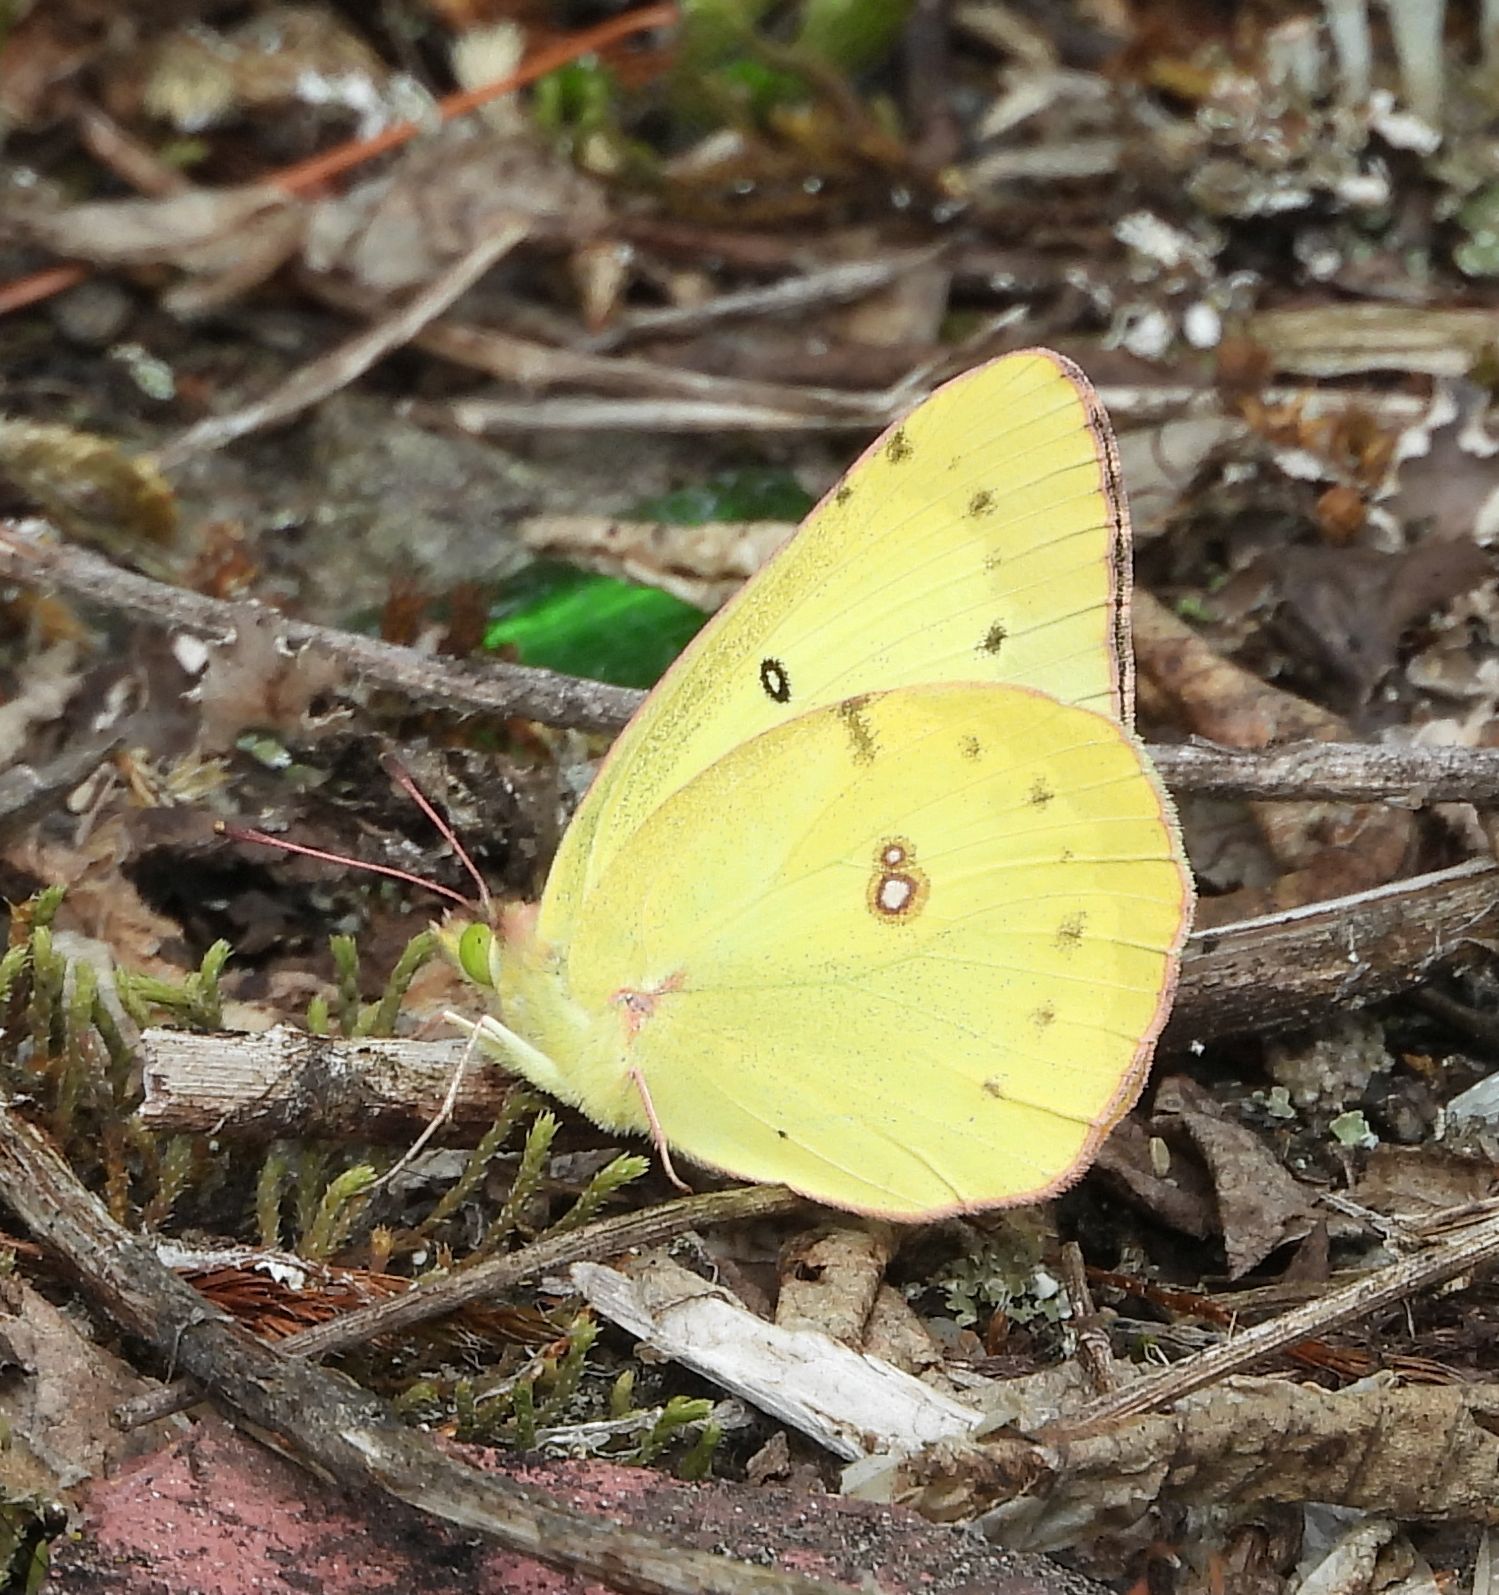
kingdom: Animalia
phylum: Arthropoda
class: Insecta
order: Lepidoptera
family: Pieridae
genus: Colias
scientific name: Colias philodice
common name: Clouded sulphur
